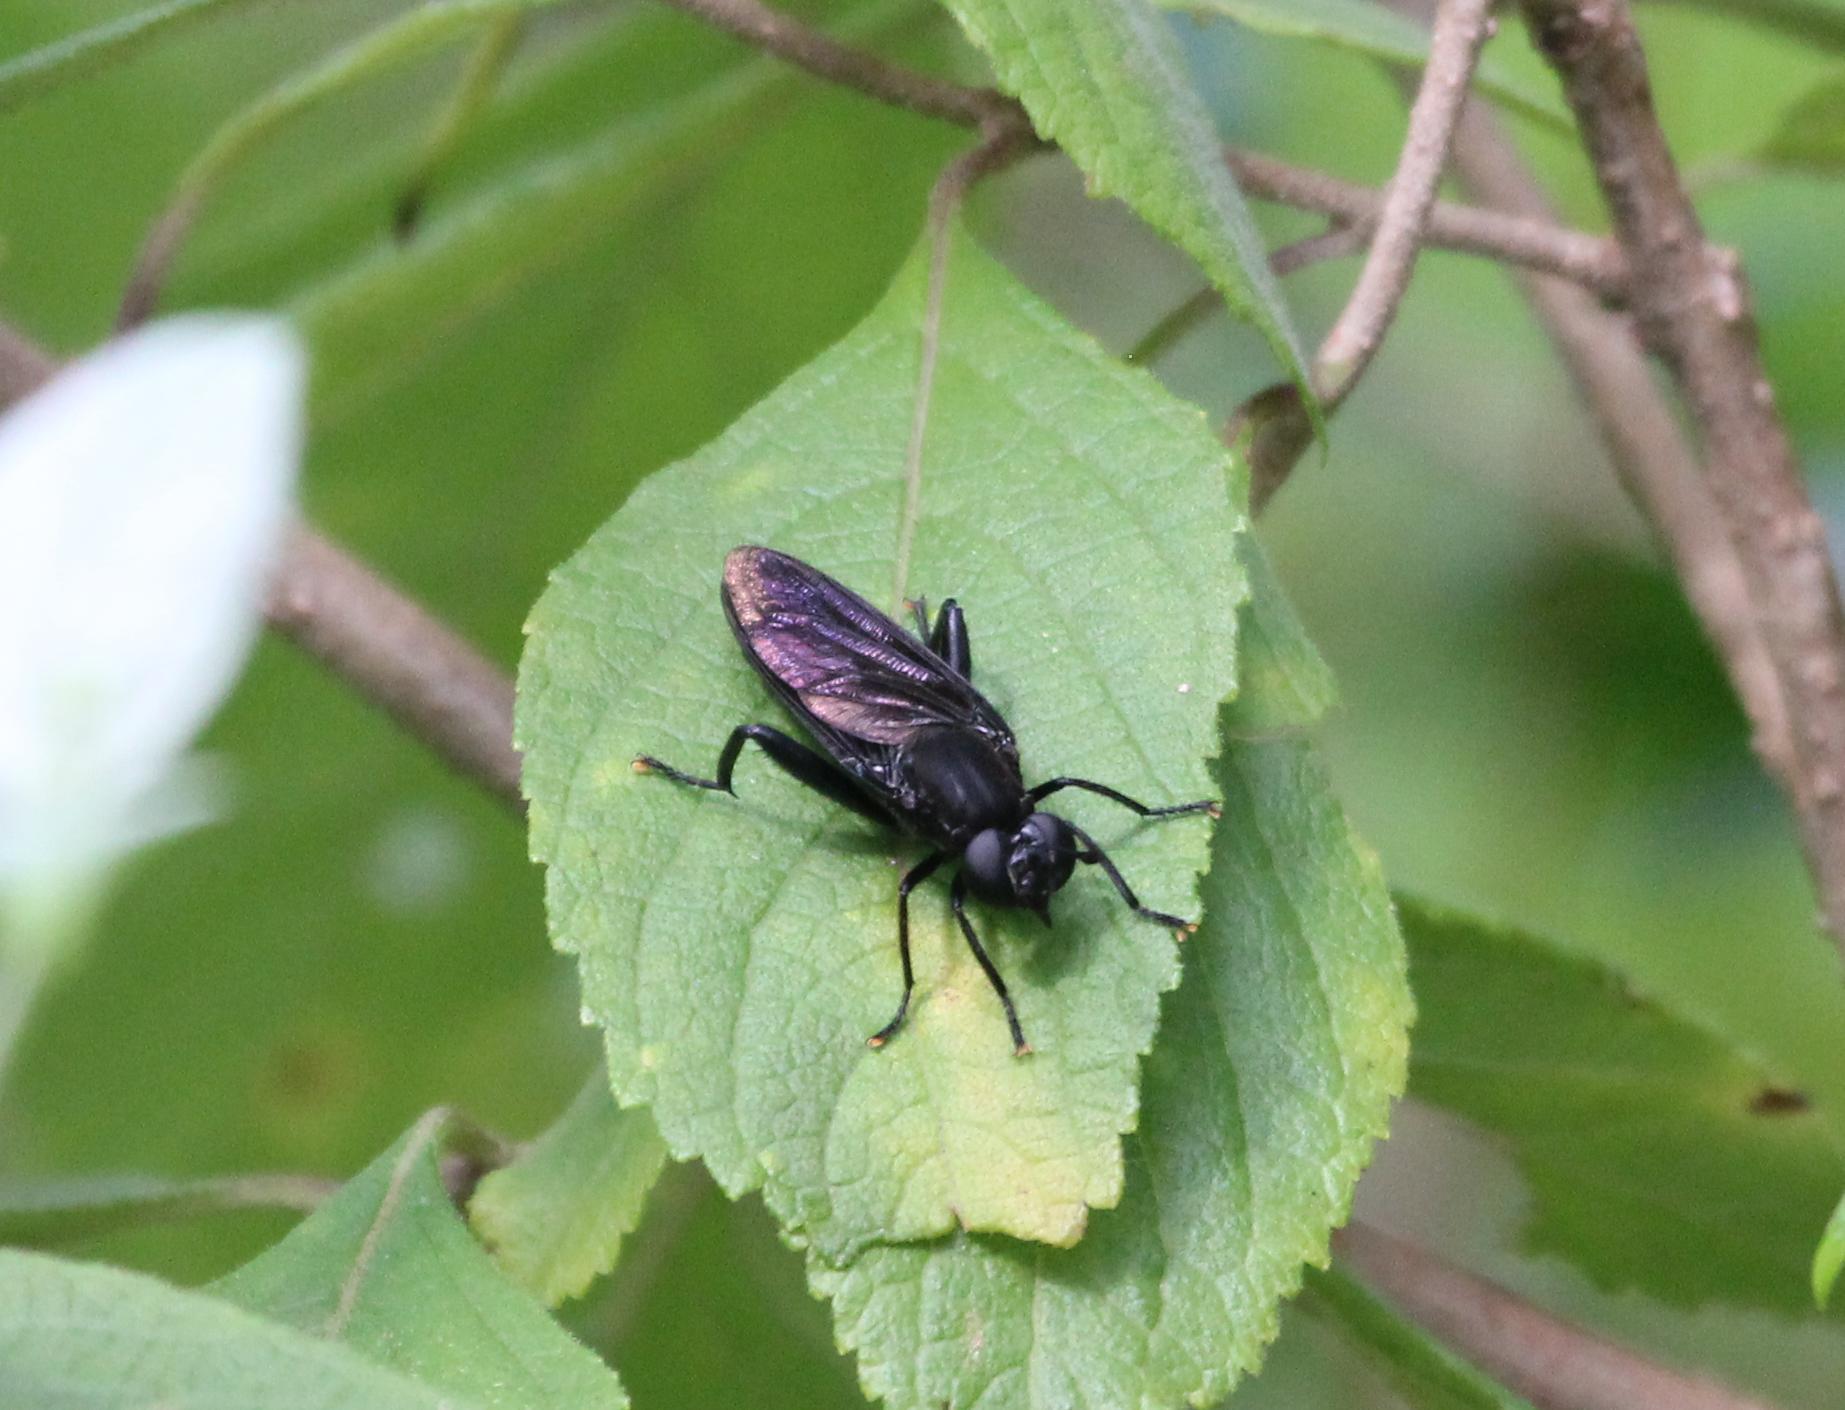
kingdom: Animalia
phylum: Arthropoda
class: Insecta
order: Diptera
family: Mydidae
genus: Mydas
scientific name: Mydas fulvifrons
